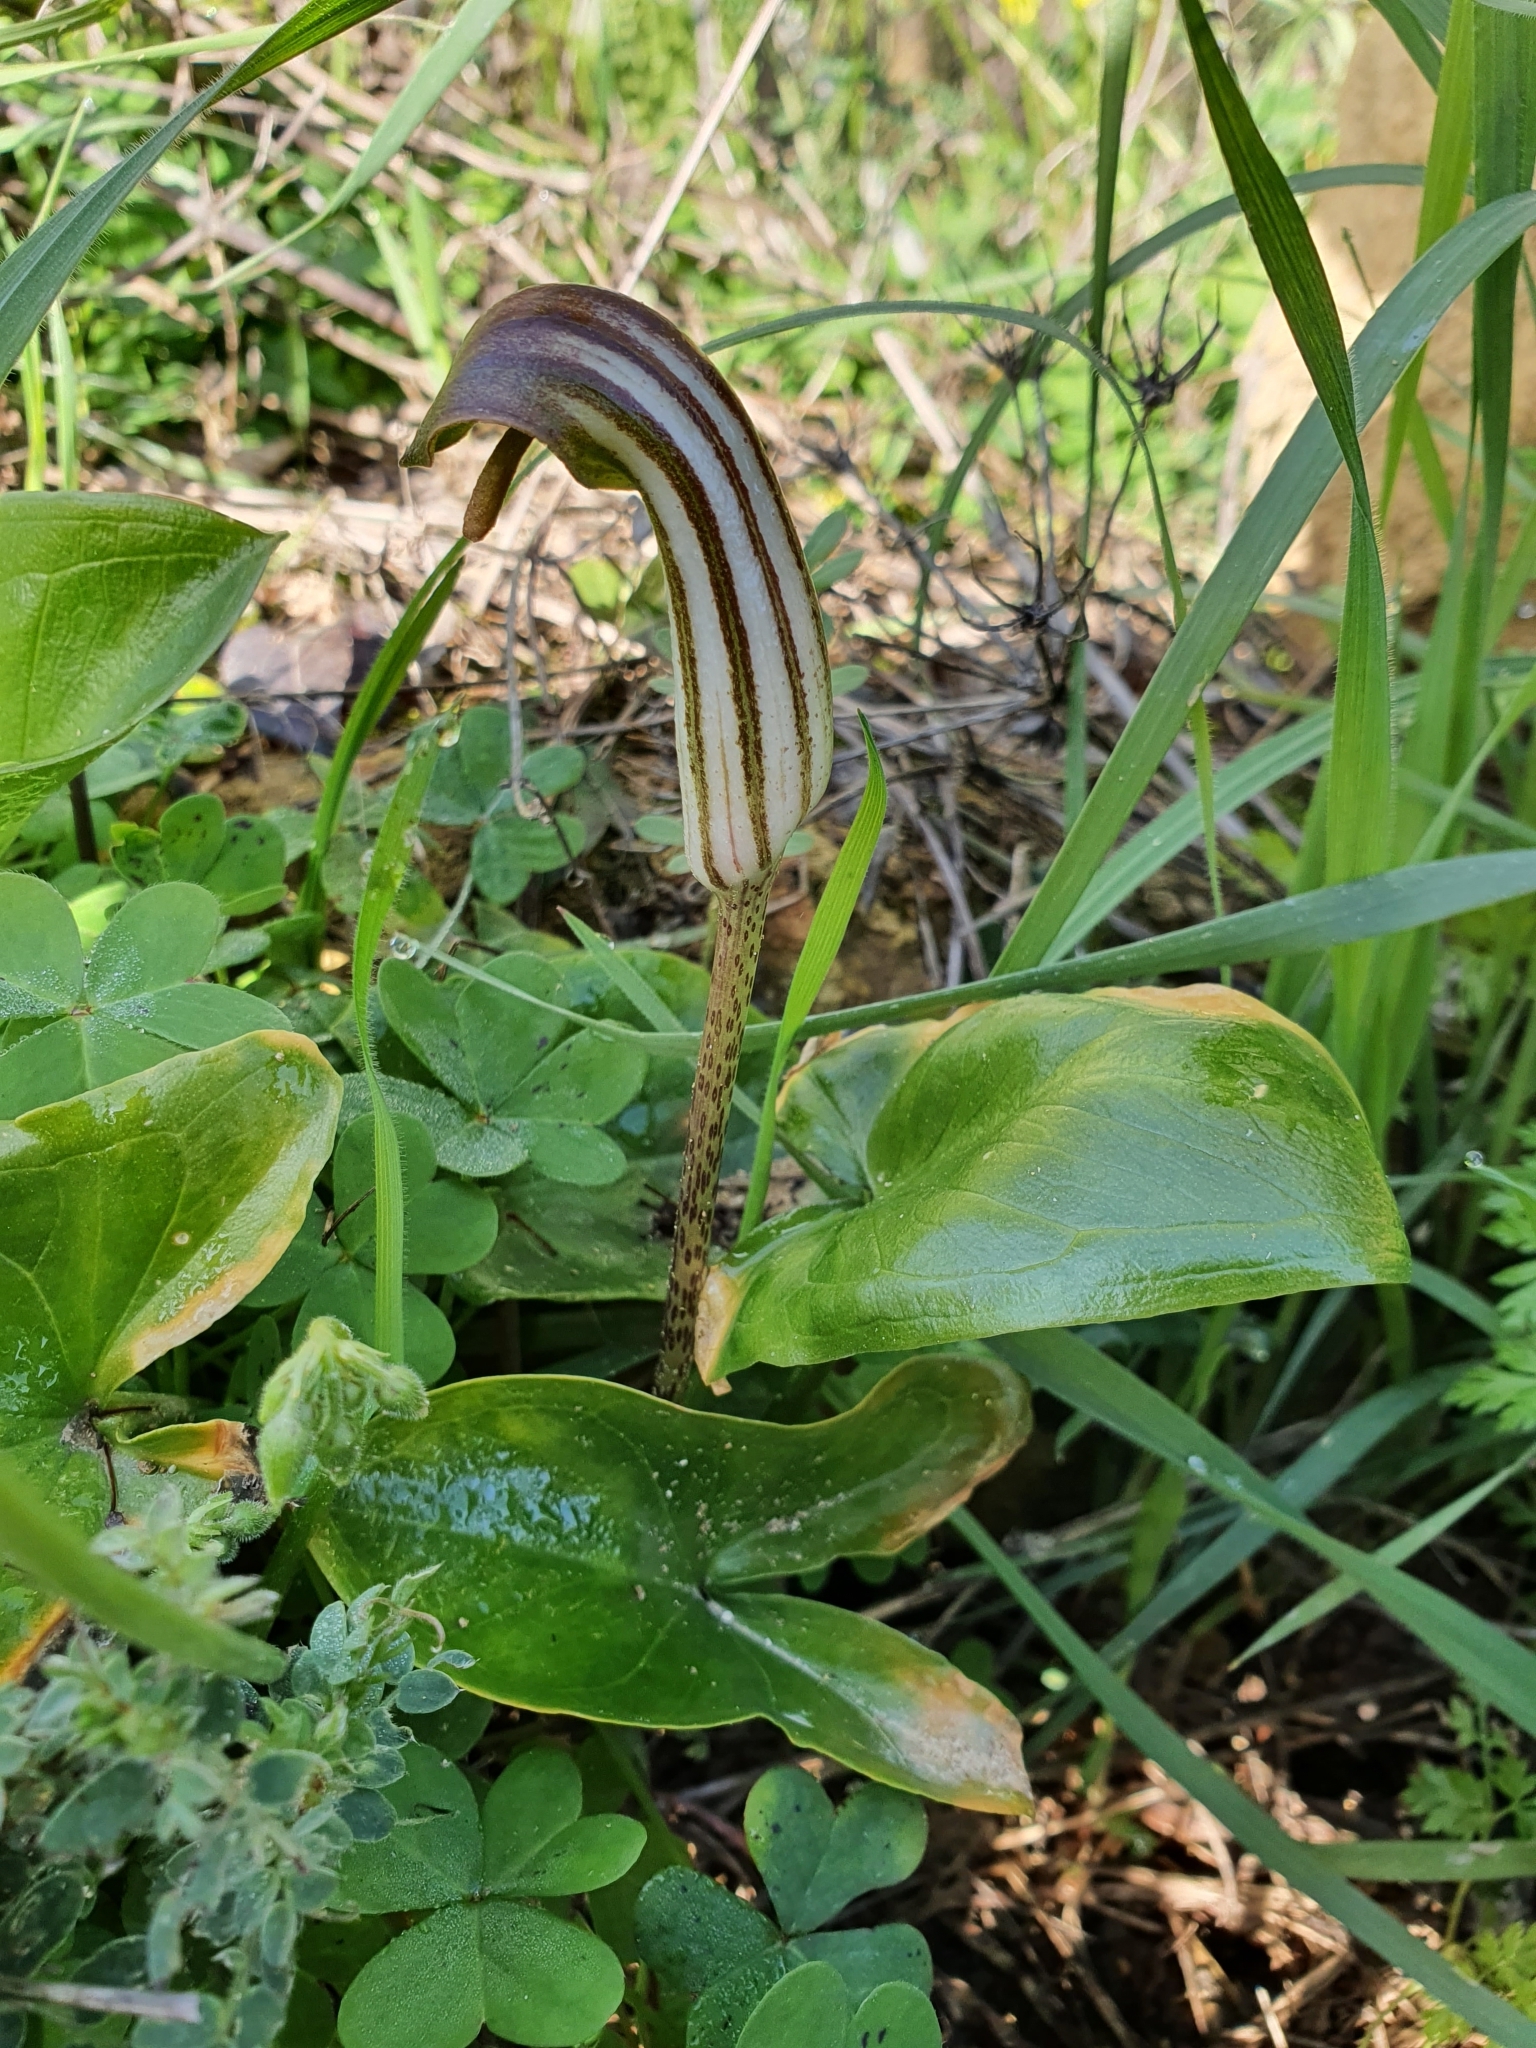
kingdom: Plantae
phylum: Tracheophyta
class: Liliopsida
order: Alismatales
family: Araceae
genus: Arisarum
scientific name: Arisarum vulgare
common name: Common arisarum
